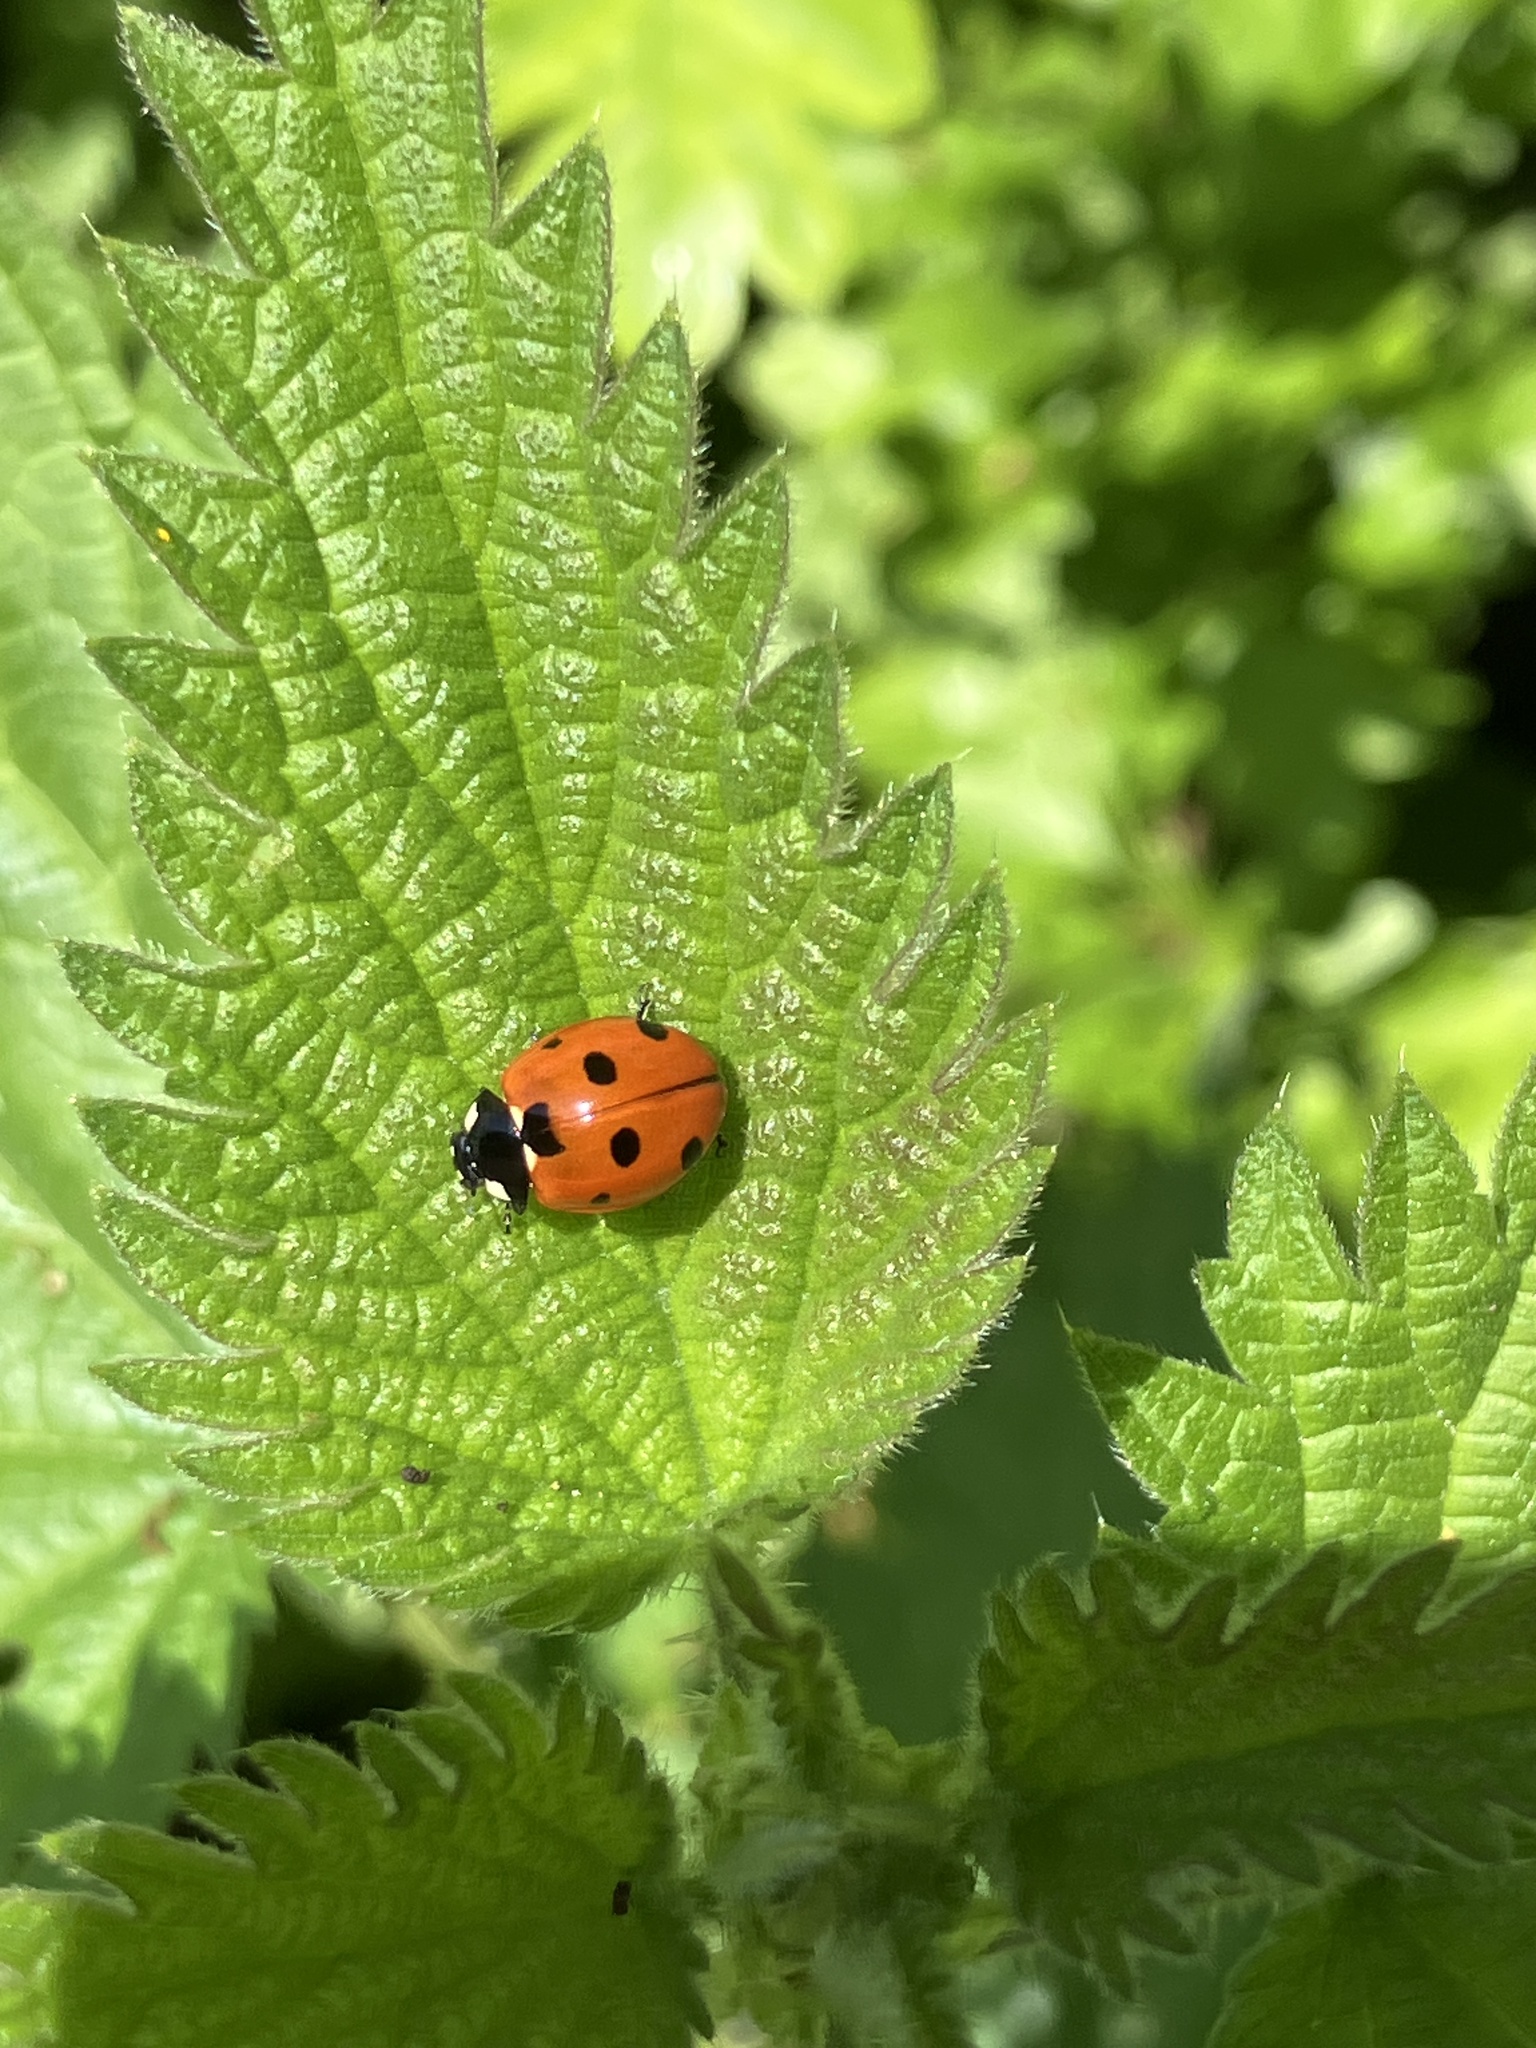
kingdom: Animalia
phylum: Arthropoda
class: Insecta
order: Coleoptera
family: Coccinellidae
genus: Coccinella
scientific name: Coccinella septempunctata
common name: Sevenspotted lady beetle
